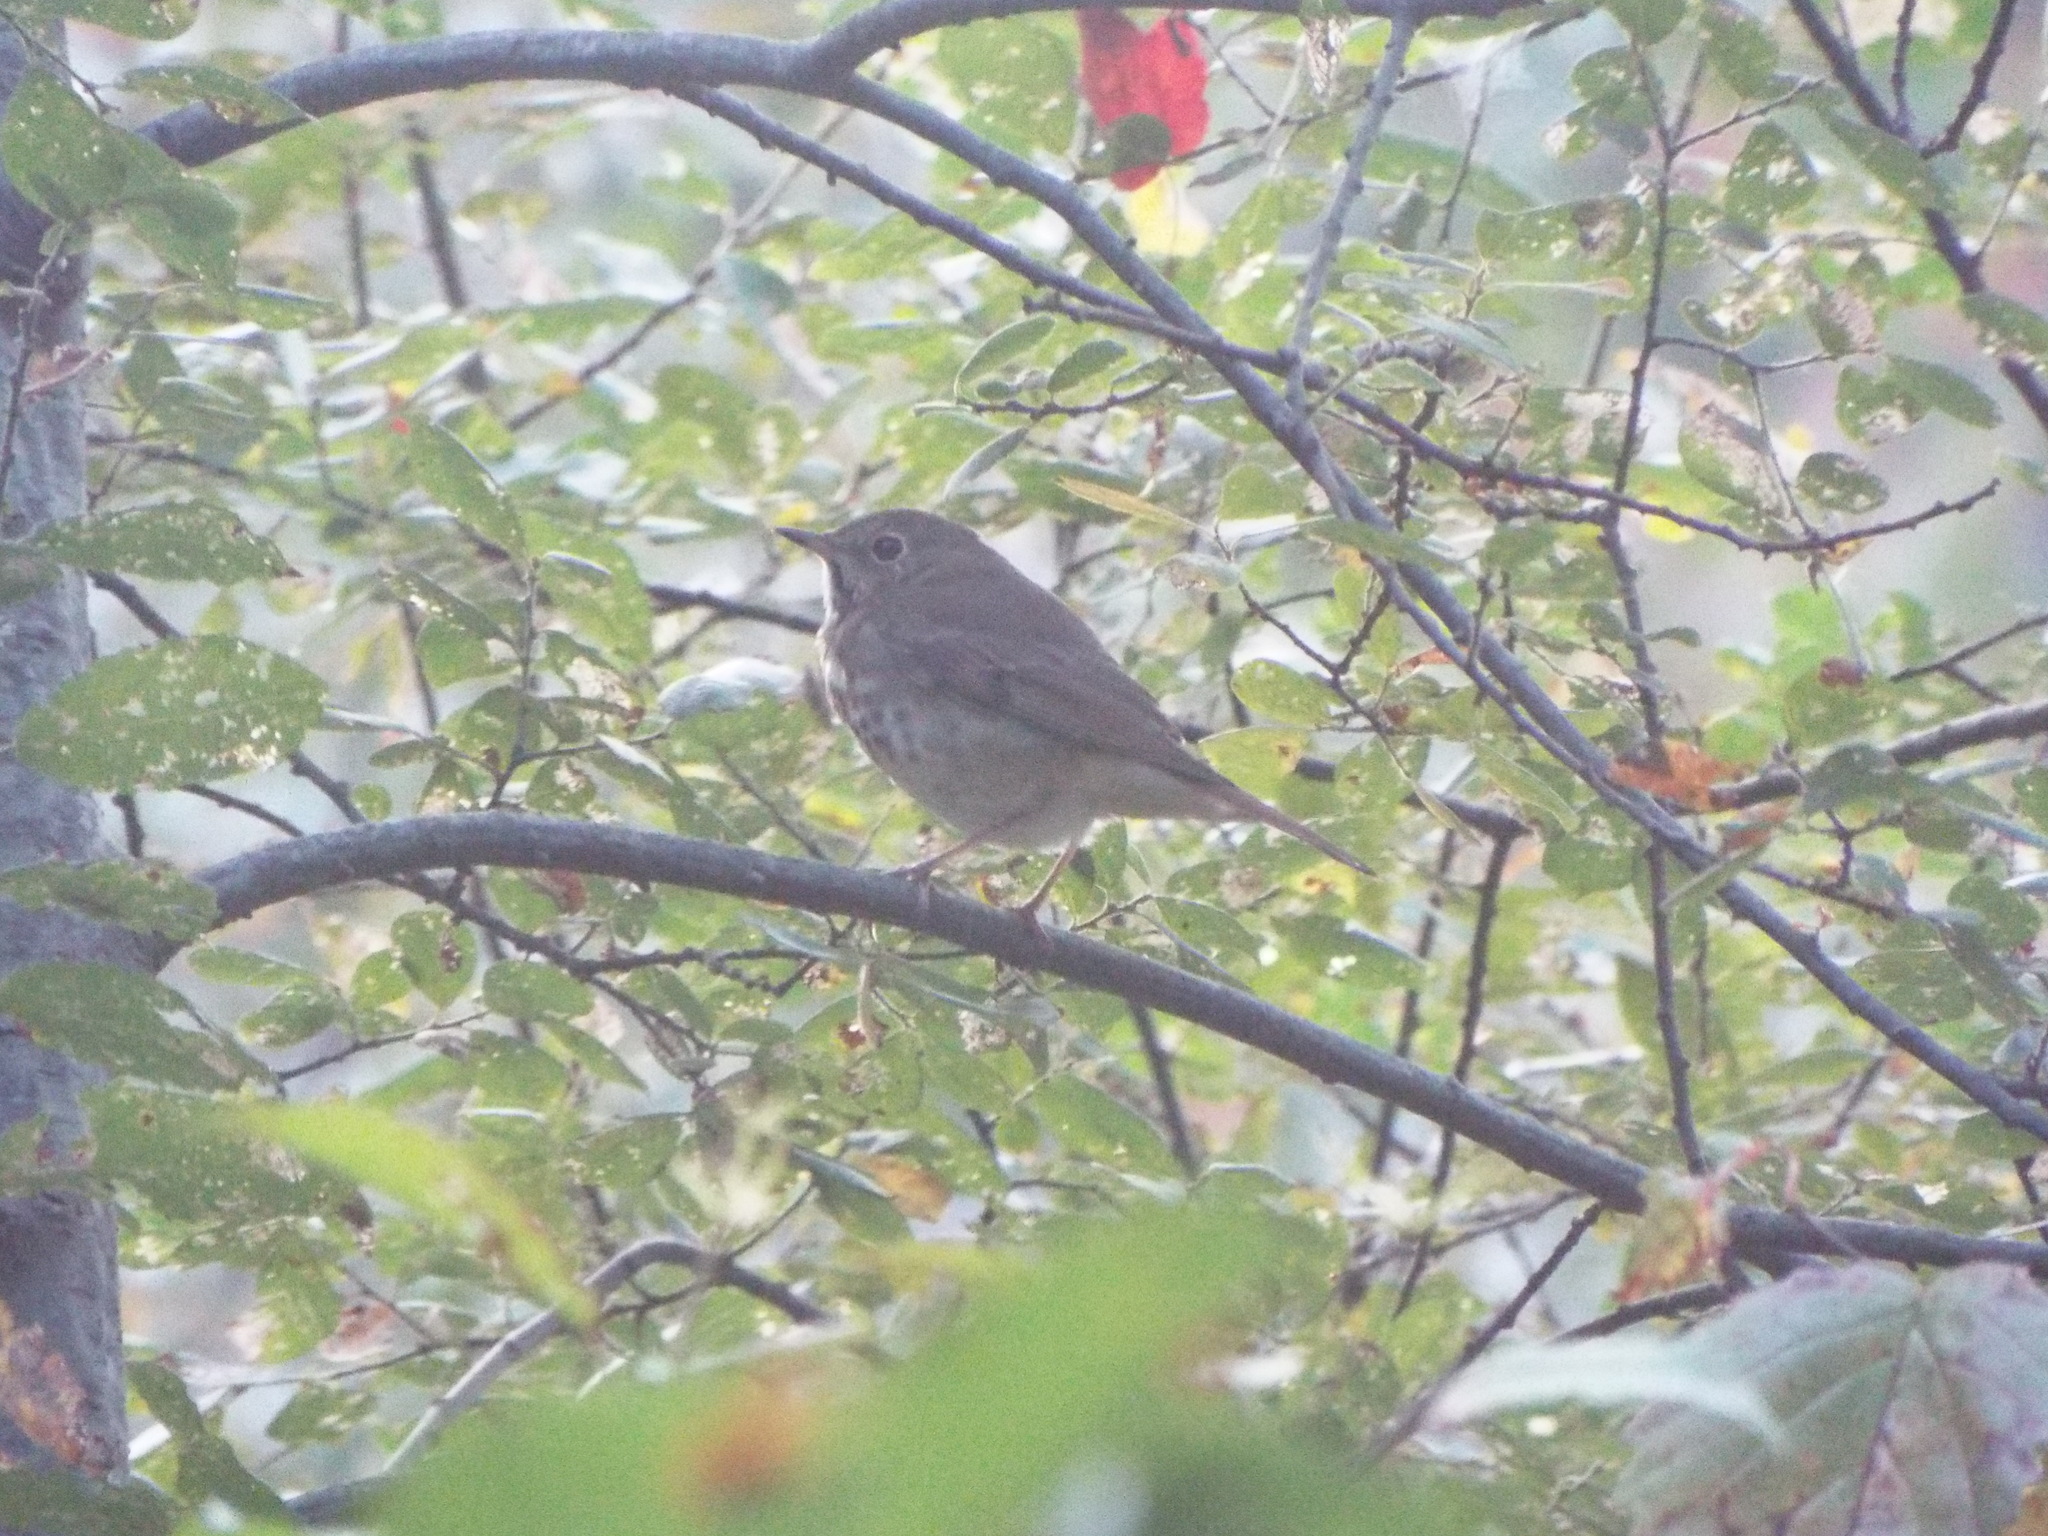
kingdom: Animalia
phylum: Chordata
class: Aves
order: Passeriformes
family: Turdidae
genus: Catharus
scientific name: Catharus guttatus
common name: Hermit thrush
